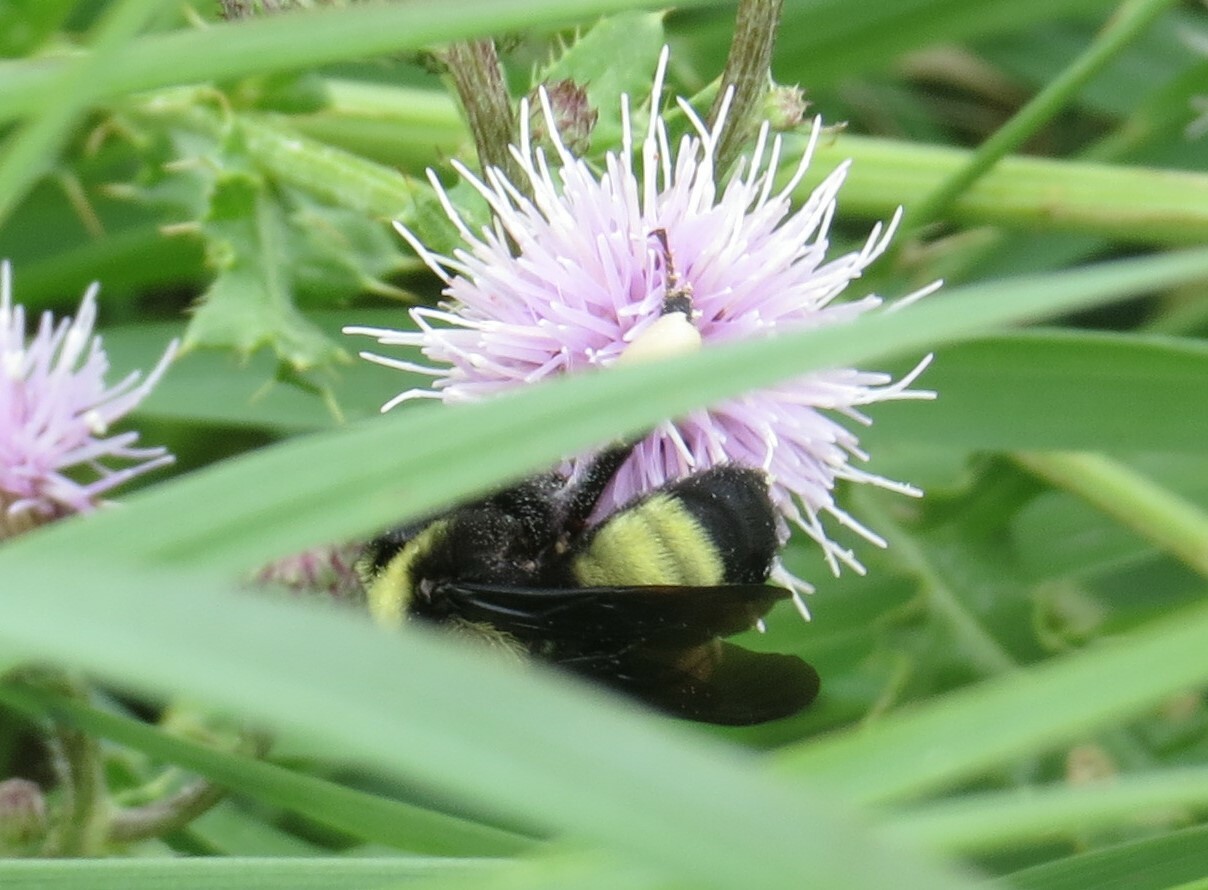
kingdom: Animalia
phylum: Arthropoda
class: Insecta
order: Hymenoptera
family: Apidae
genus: Bombus
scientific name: Bombus auricomus
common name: Black and gold bumble bee
